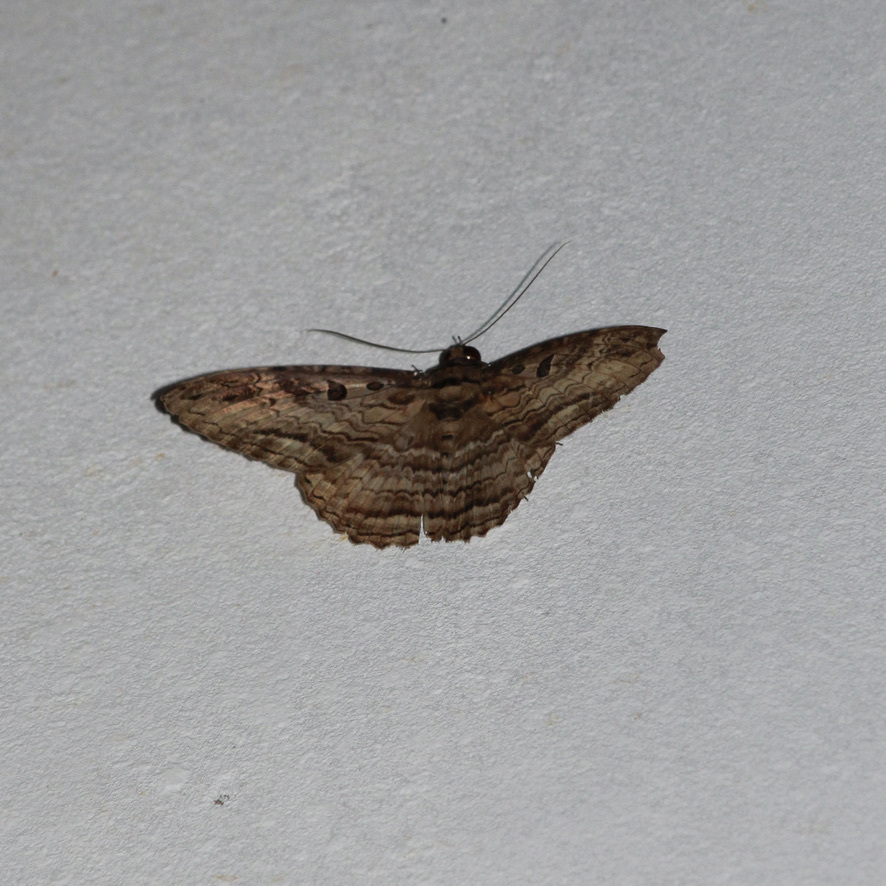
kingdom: Animalia
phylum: Arthropoda
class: Insecta
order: Lepidoptera
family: Erebidae
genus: Feigeria
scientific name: Feigeria buteo
